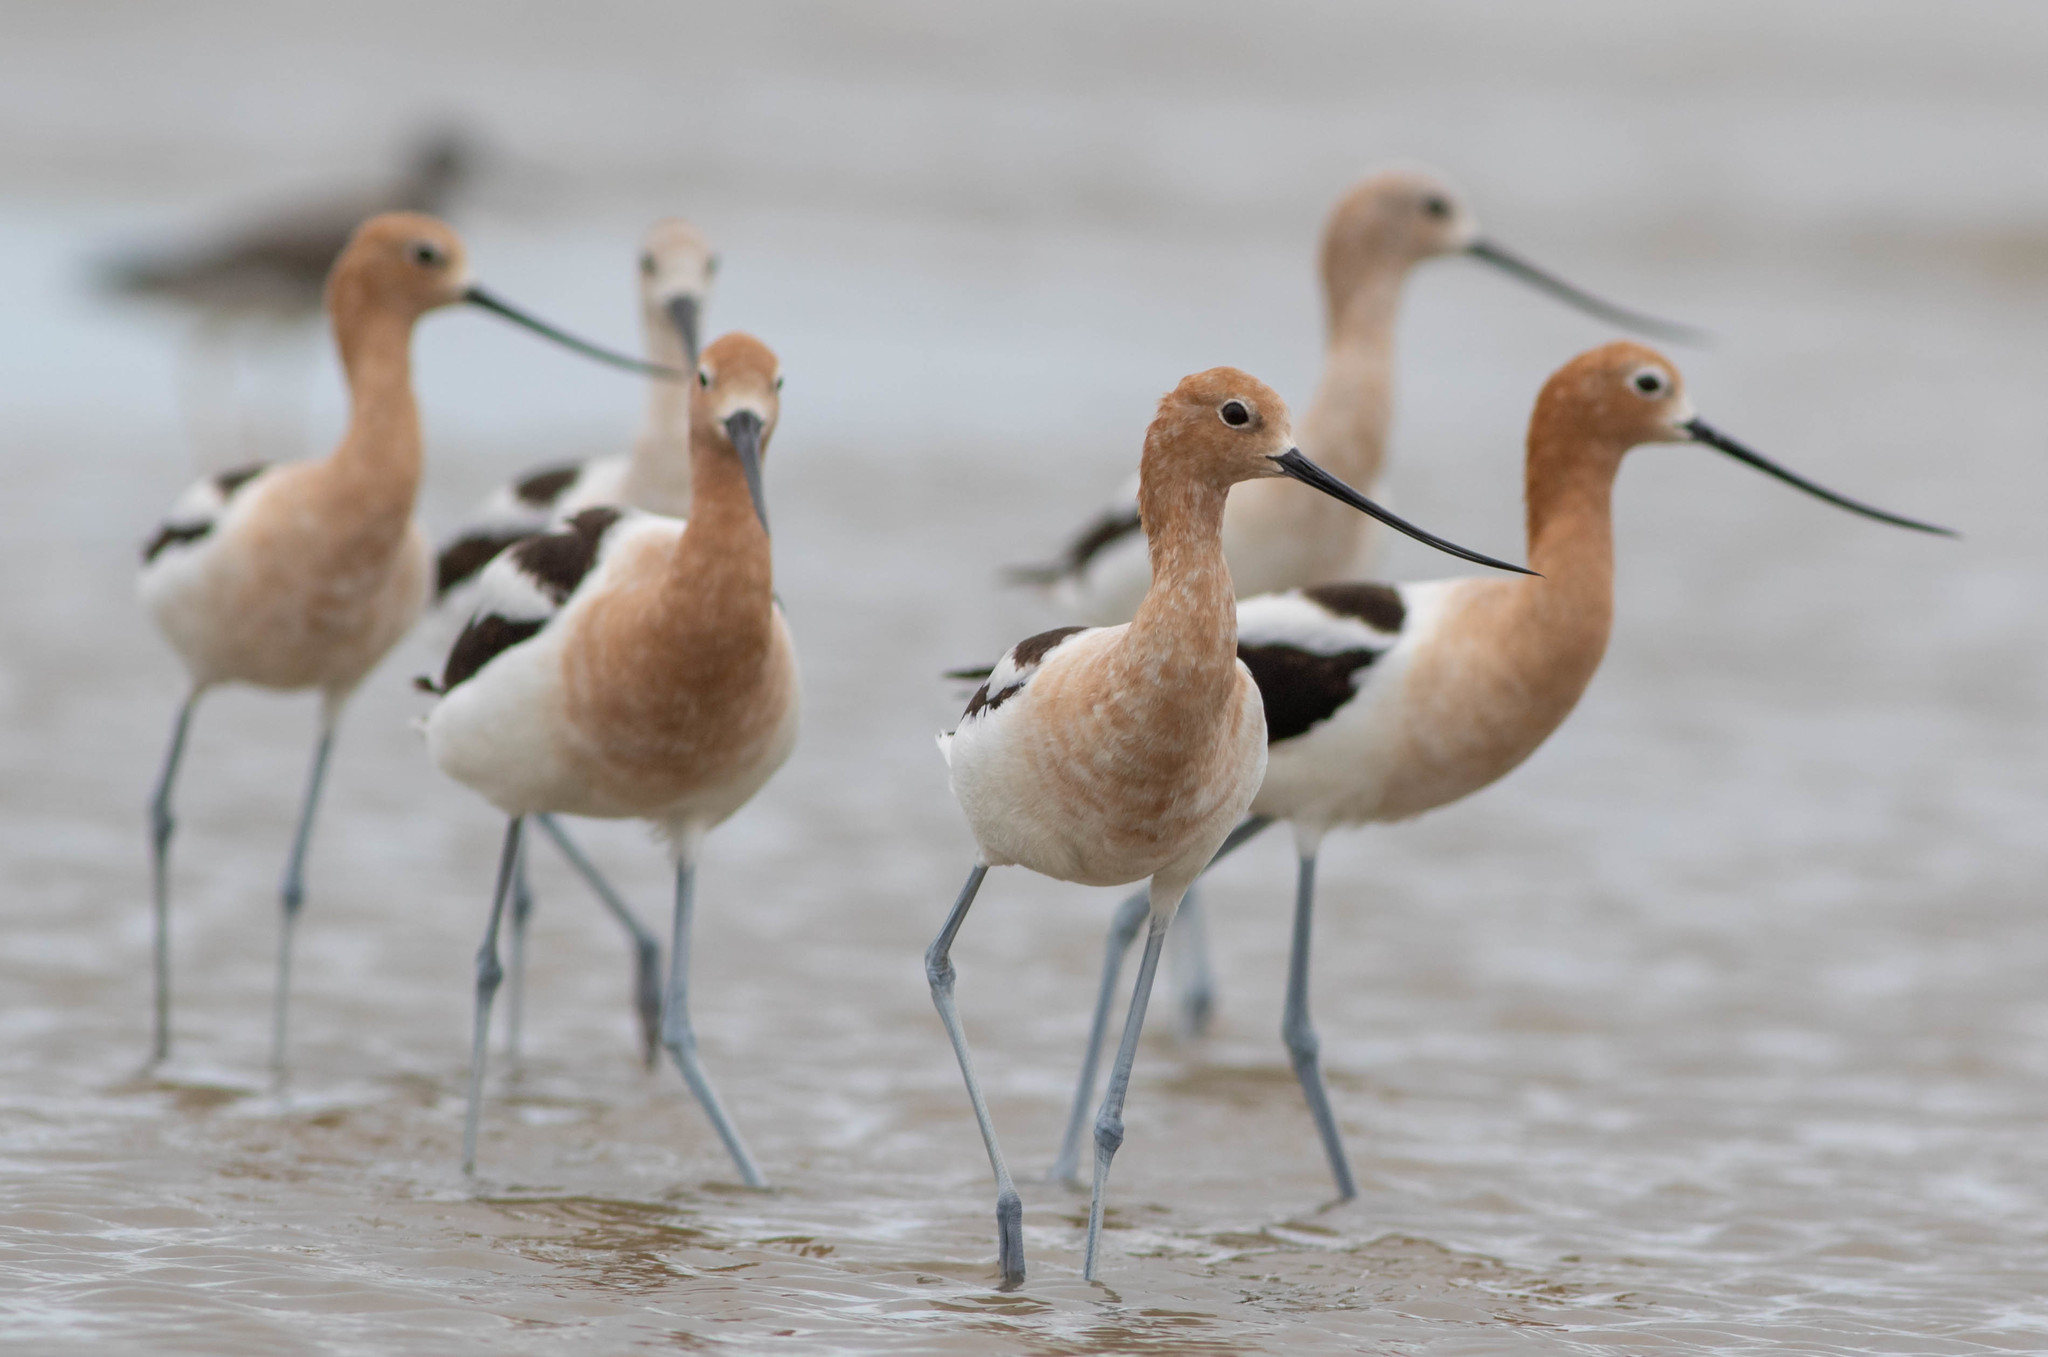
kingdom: Animalia
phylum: Chordata
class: Aves
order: Charadriiformes
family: Recurvirostridae
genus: Recurvirostra
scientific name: Recurvirostra americana
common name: American avocet
